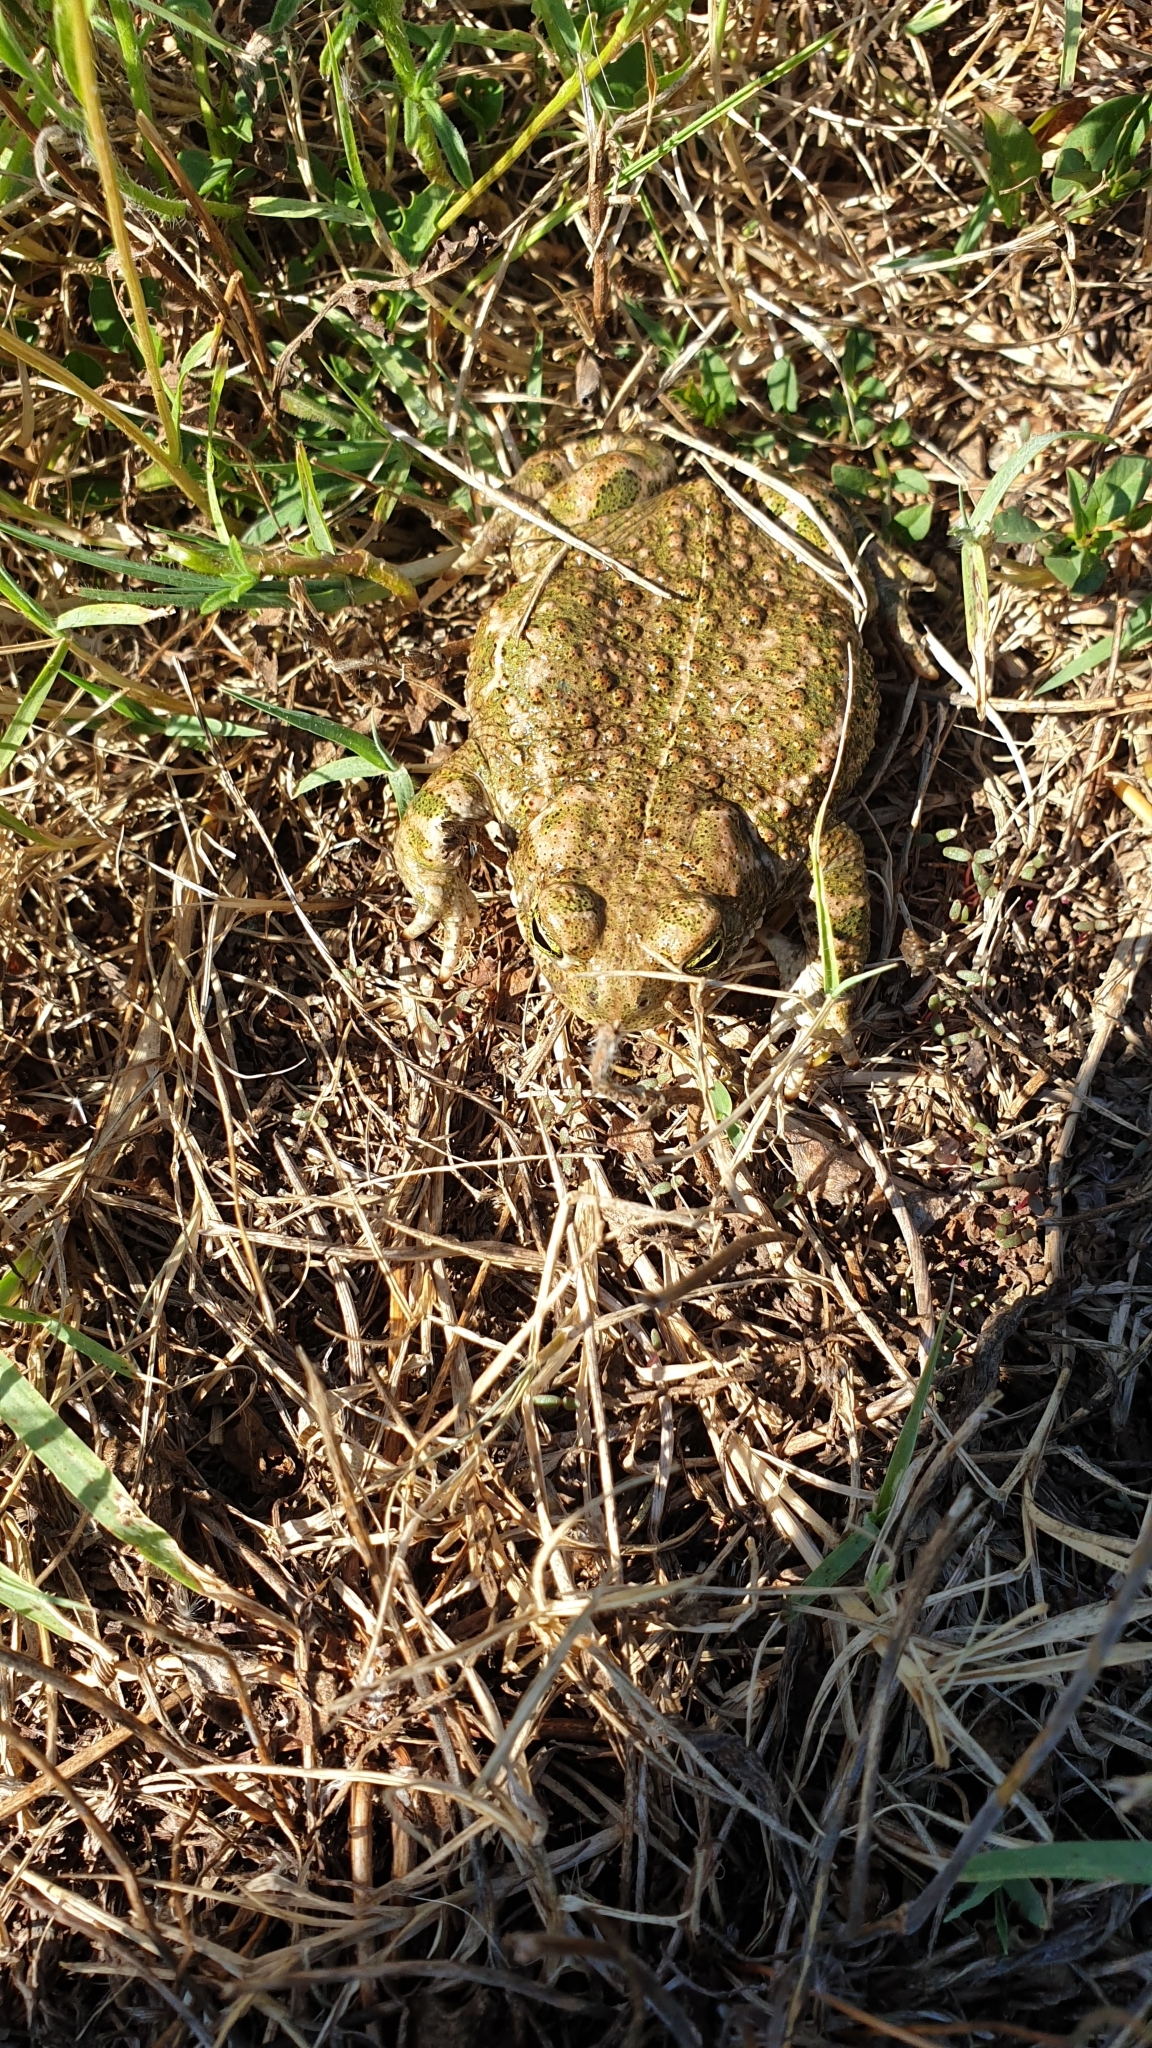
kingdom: Animalia
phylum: Chordata
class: Amphibia
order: Anura
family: Bufonidae
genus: Epidalea
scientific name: Epidalea calamita
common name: Natterjack toad
